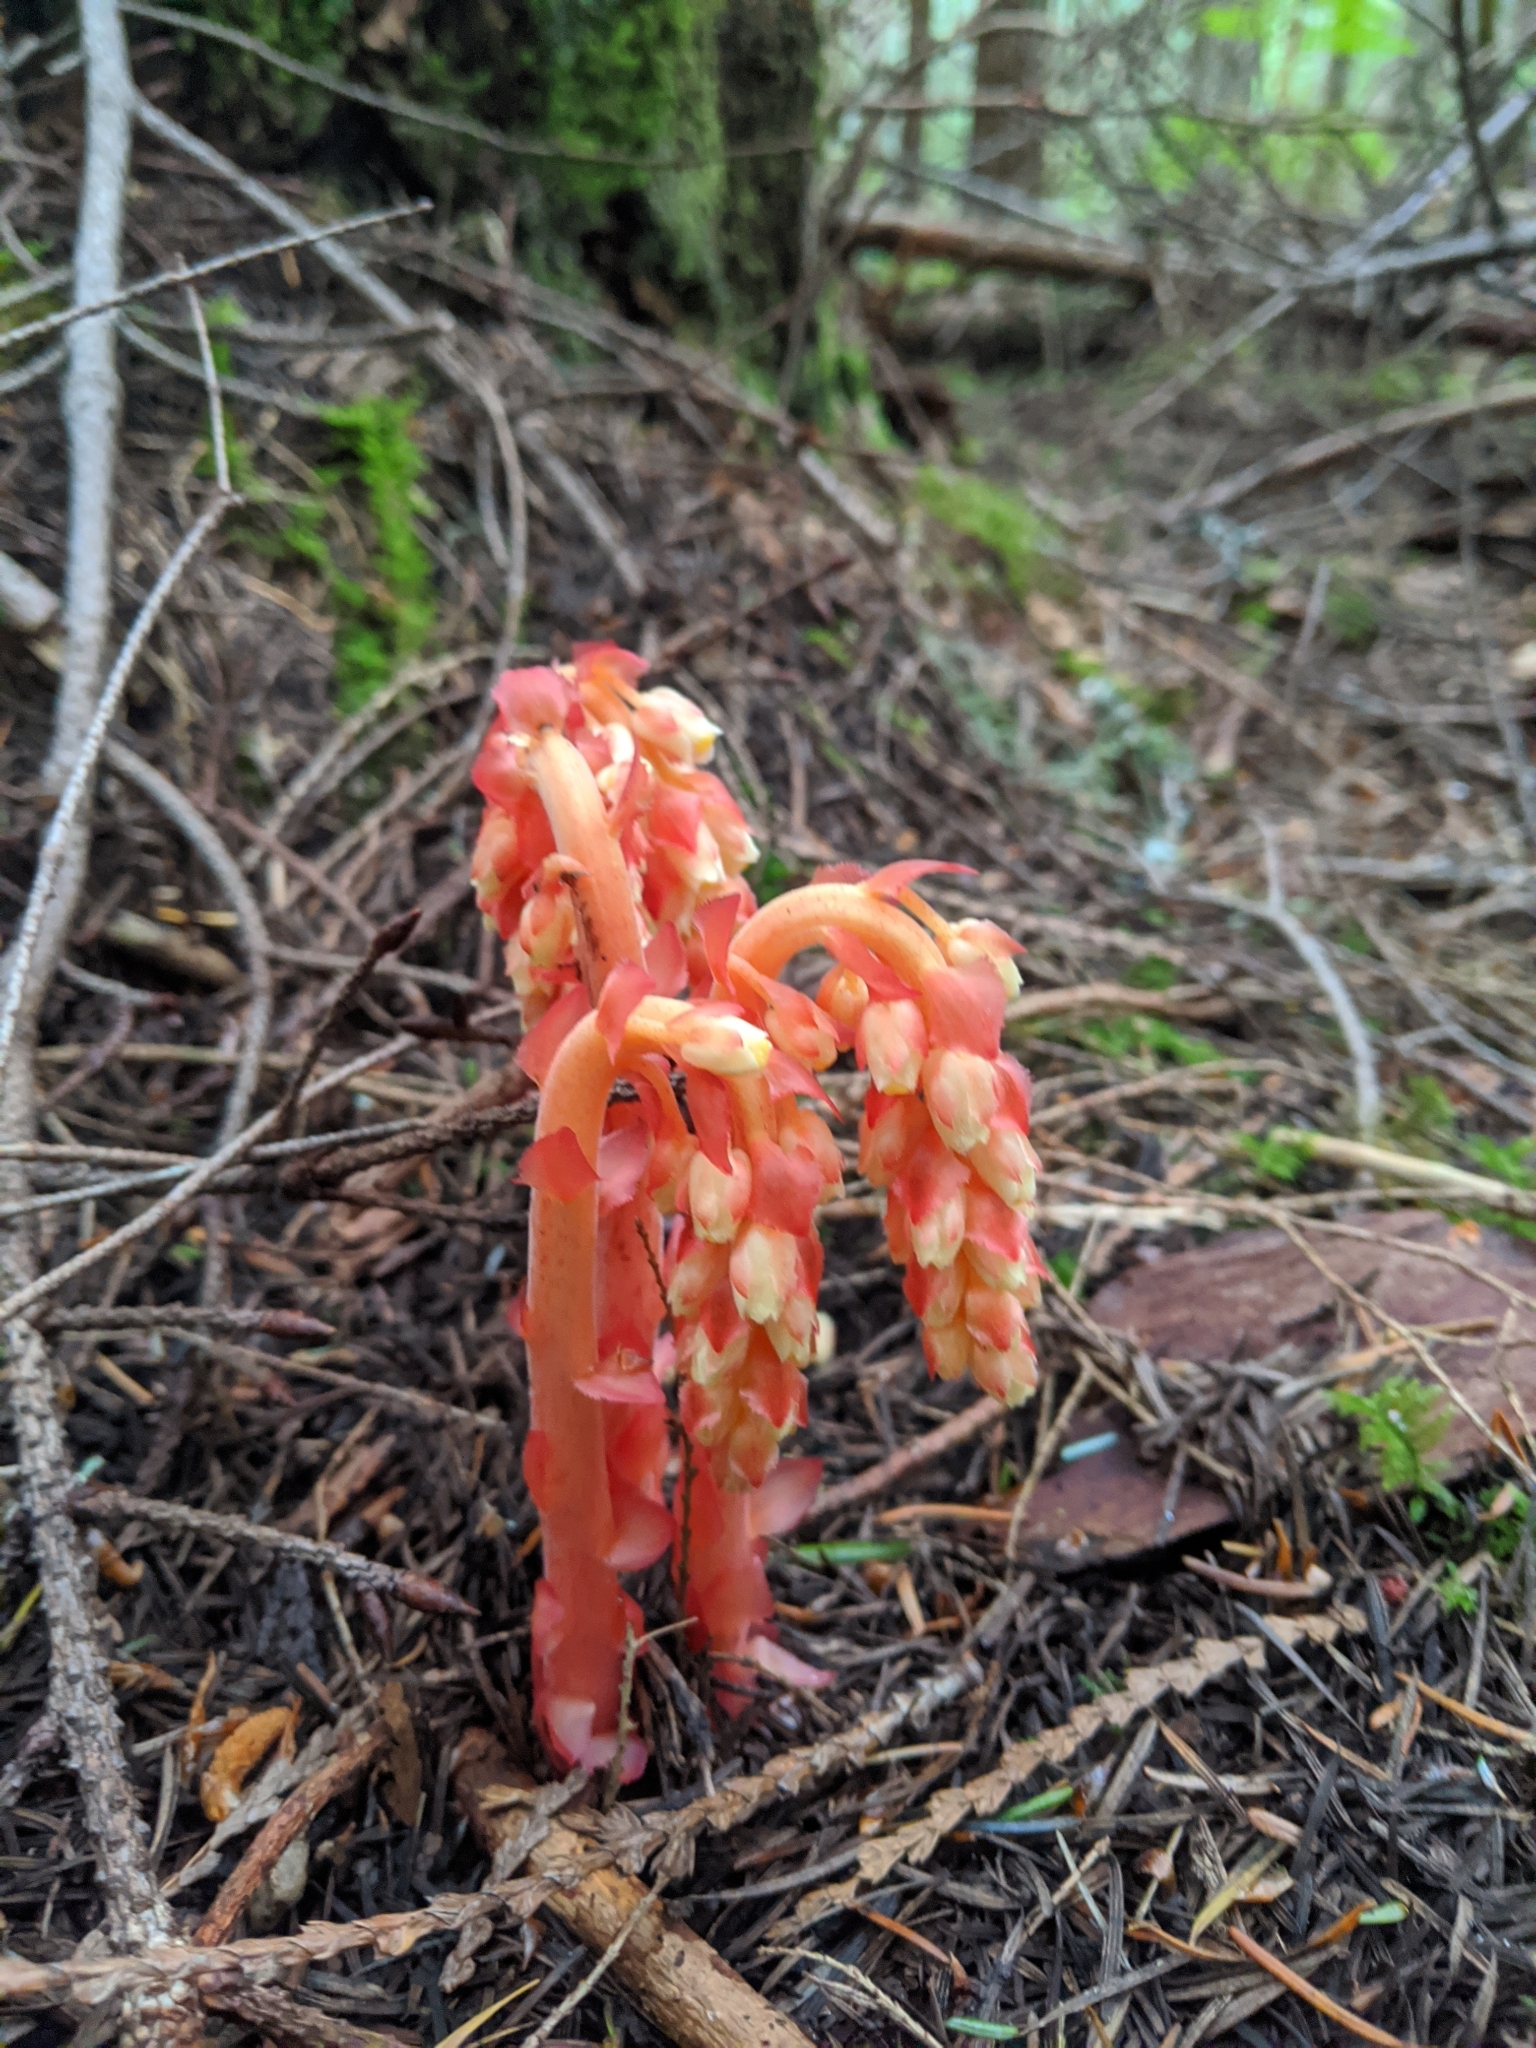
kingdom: Plantae
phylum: Tracheophyta
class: Magnoliopsida
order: Ericales
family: Ericaceae
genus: Hypopitys
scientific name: Hypopitys monotropa
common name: Yellow bird's-nest
